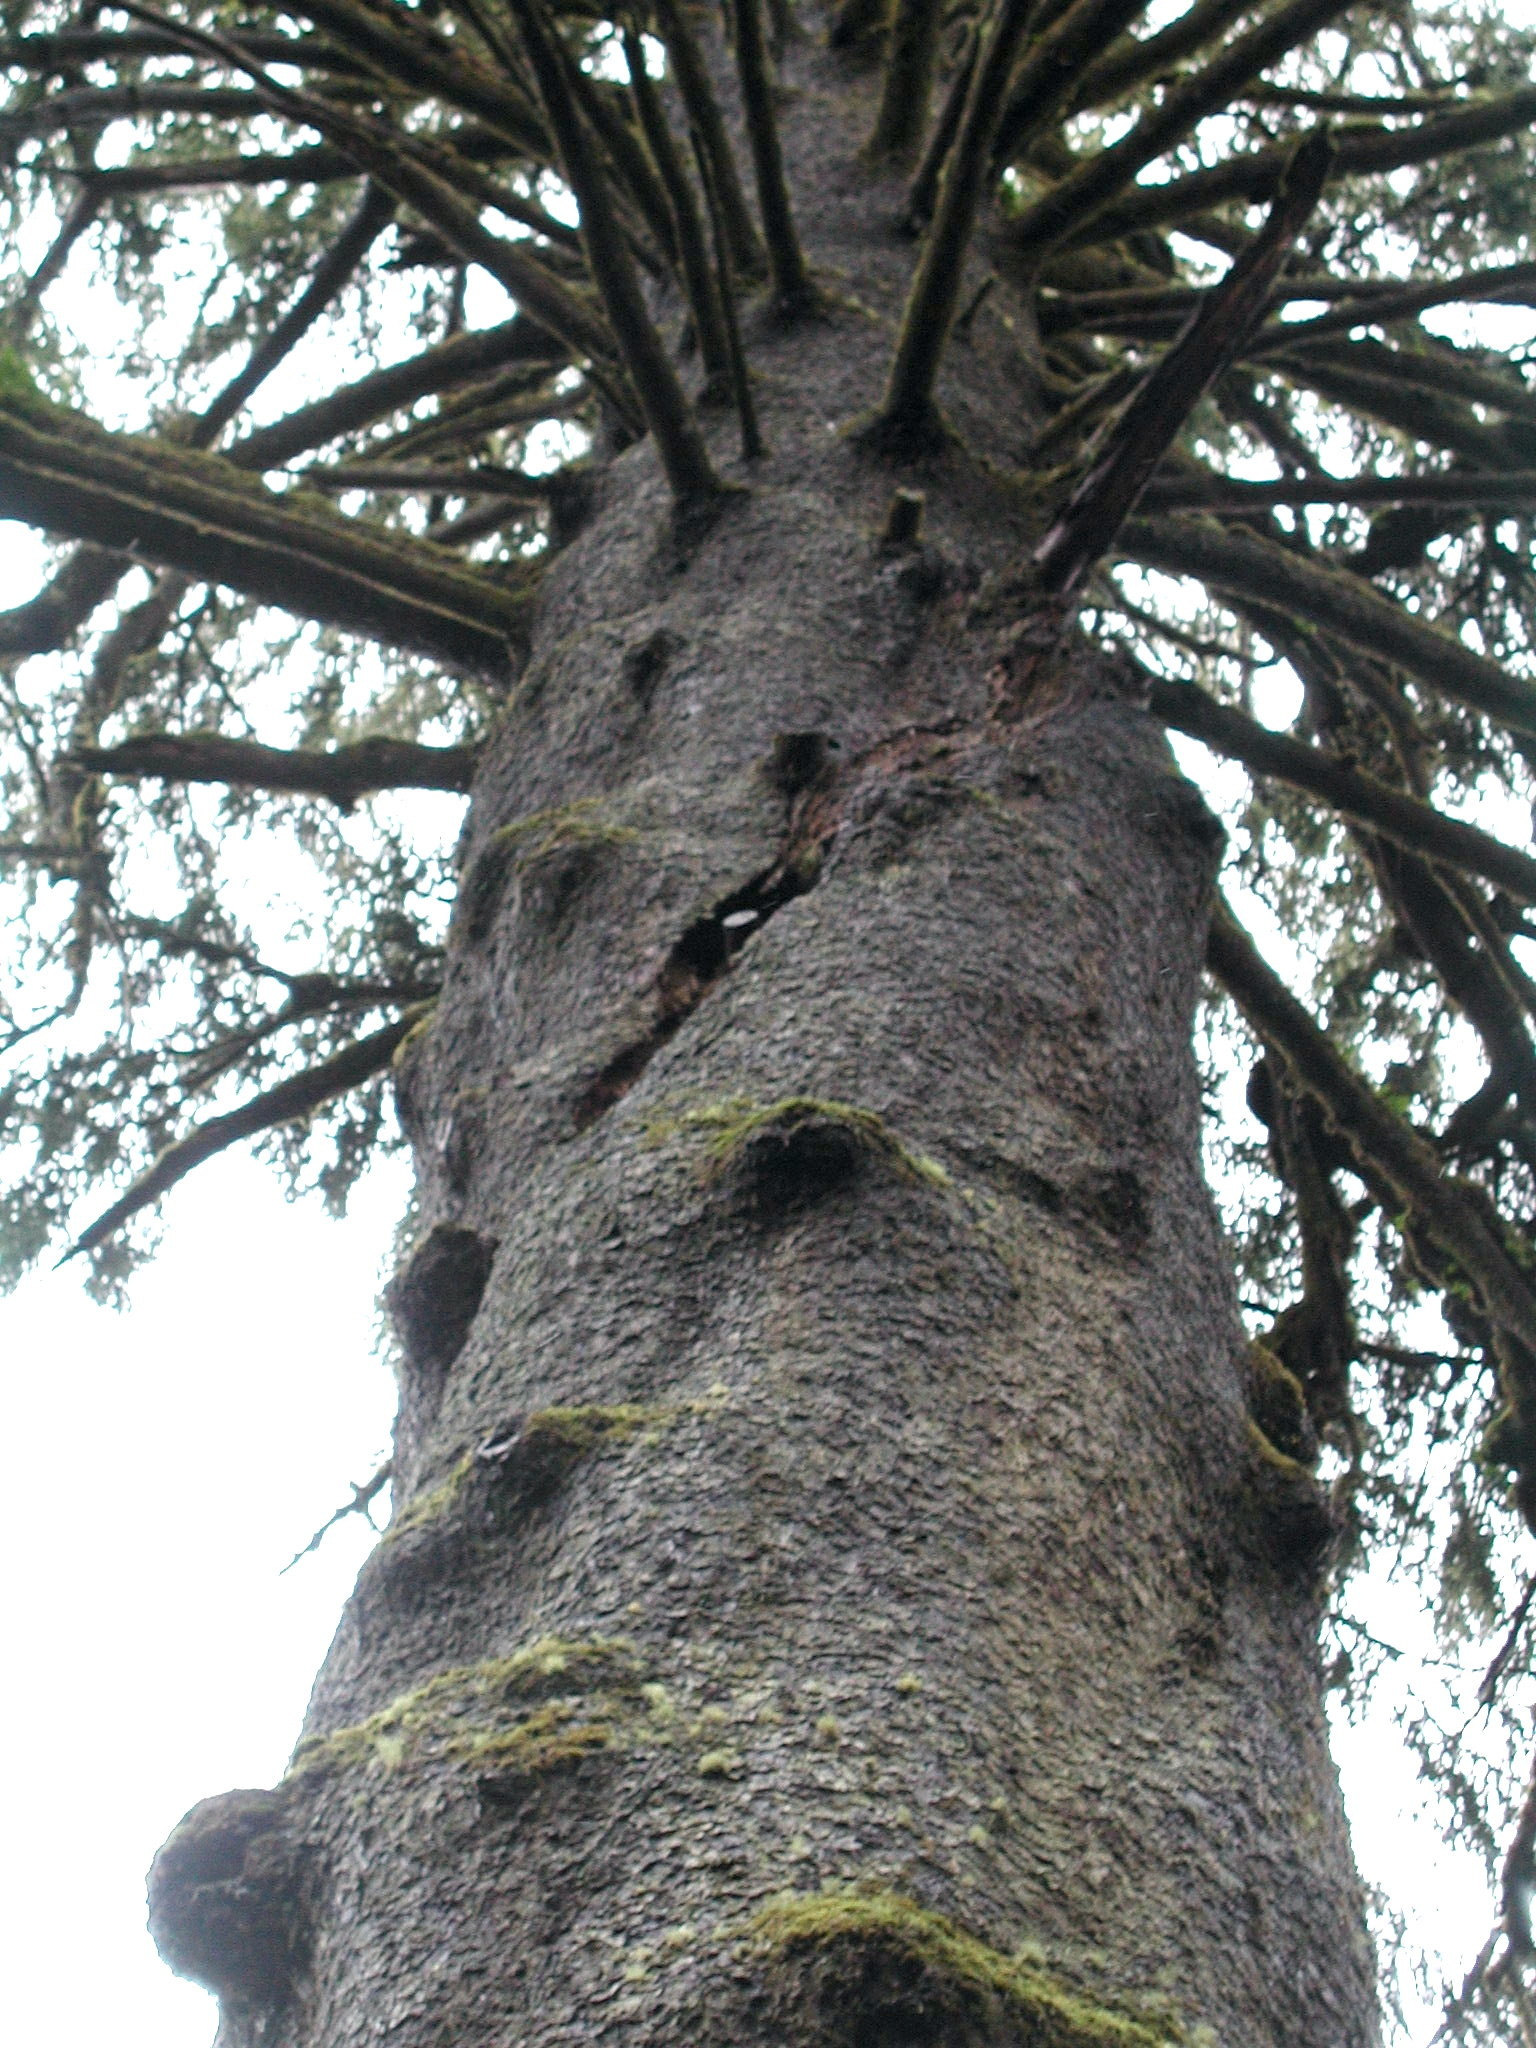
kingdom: Plantae
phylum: Tracheophyta
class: Pinopsida
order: Pinales
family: Pinaceae
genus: Picea
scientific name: Picea sitchensis
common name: Sitka spruce
